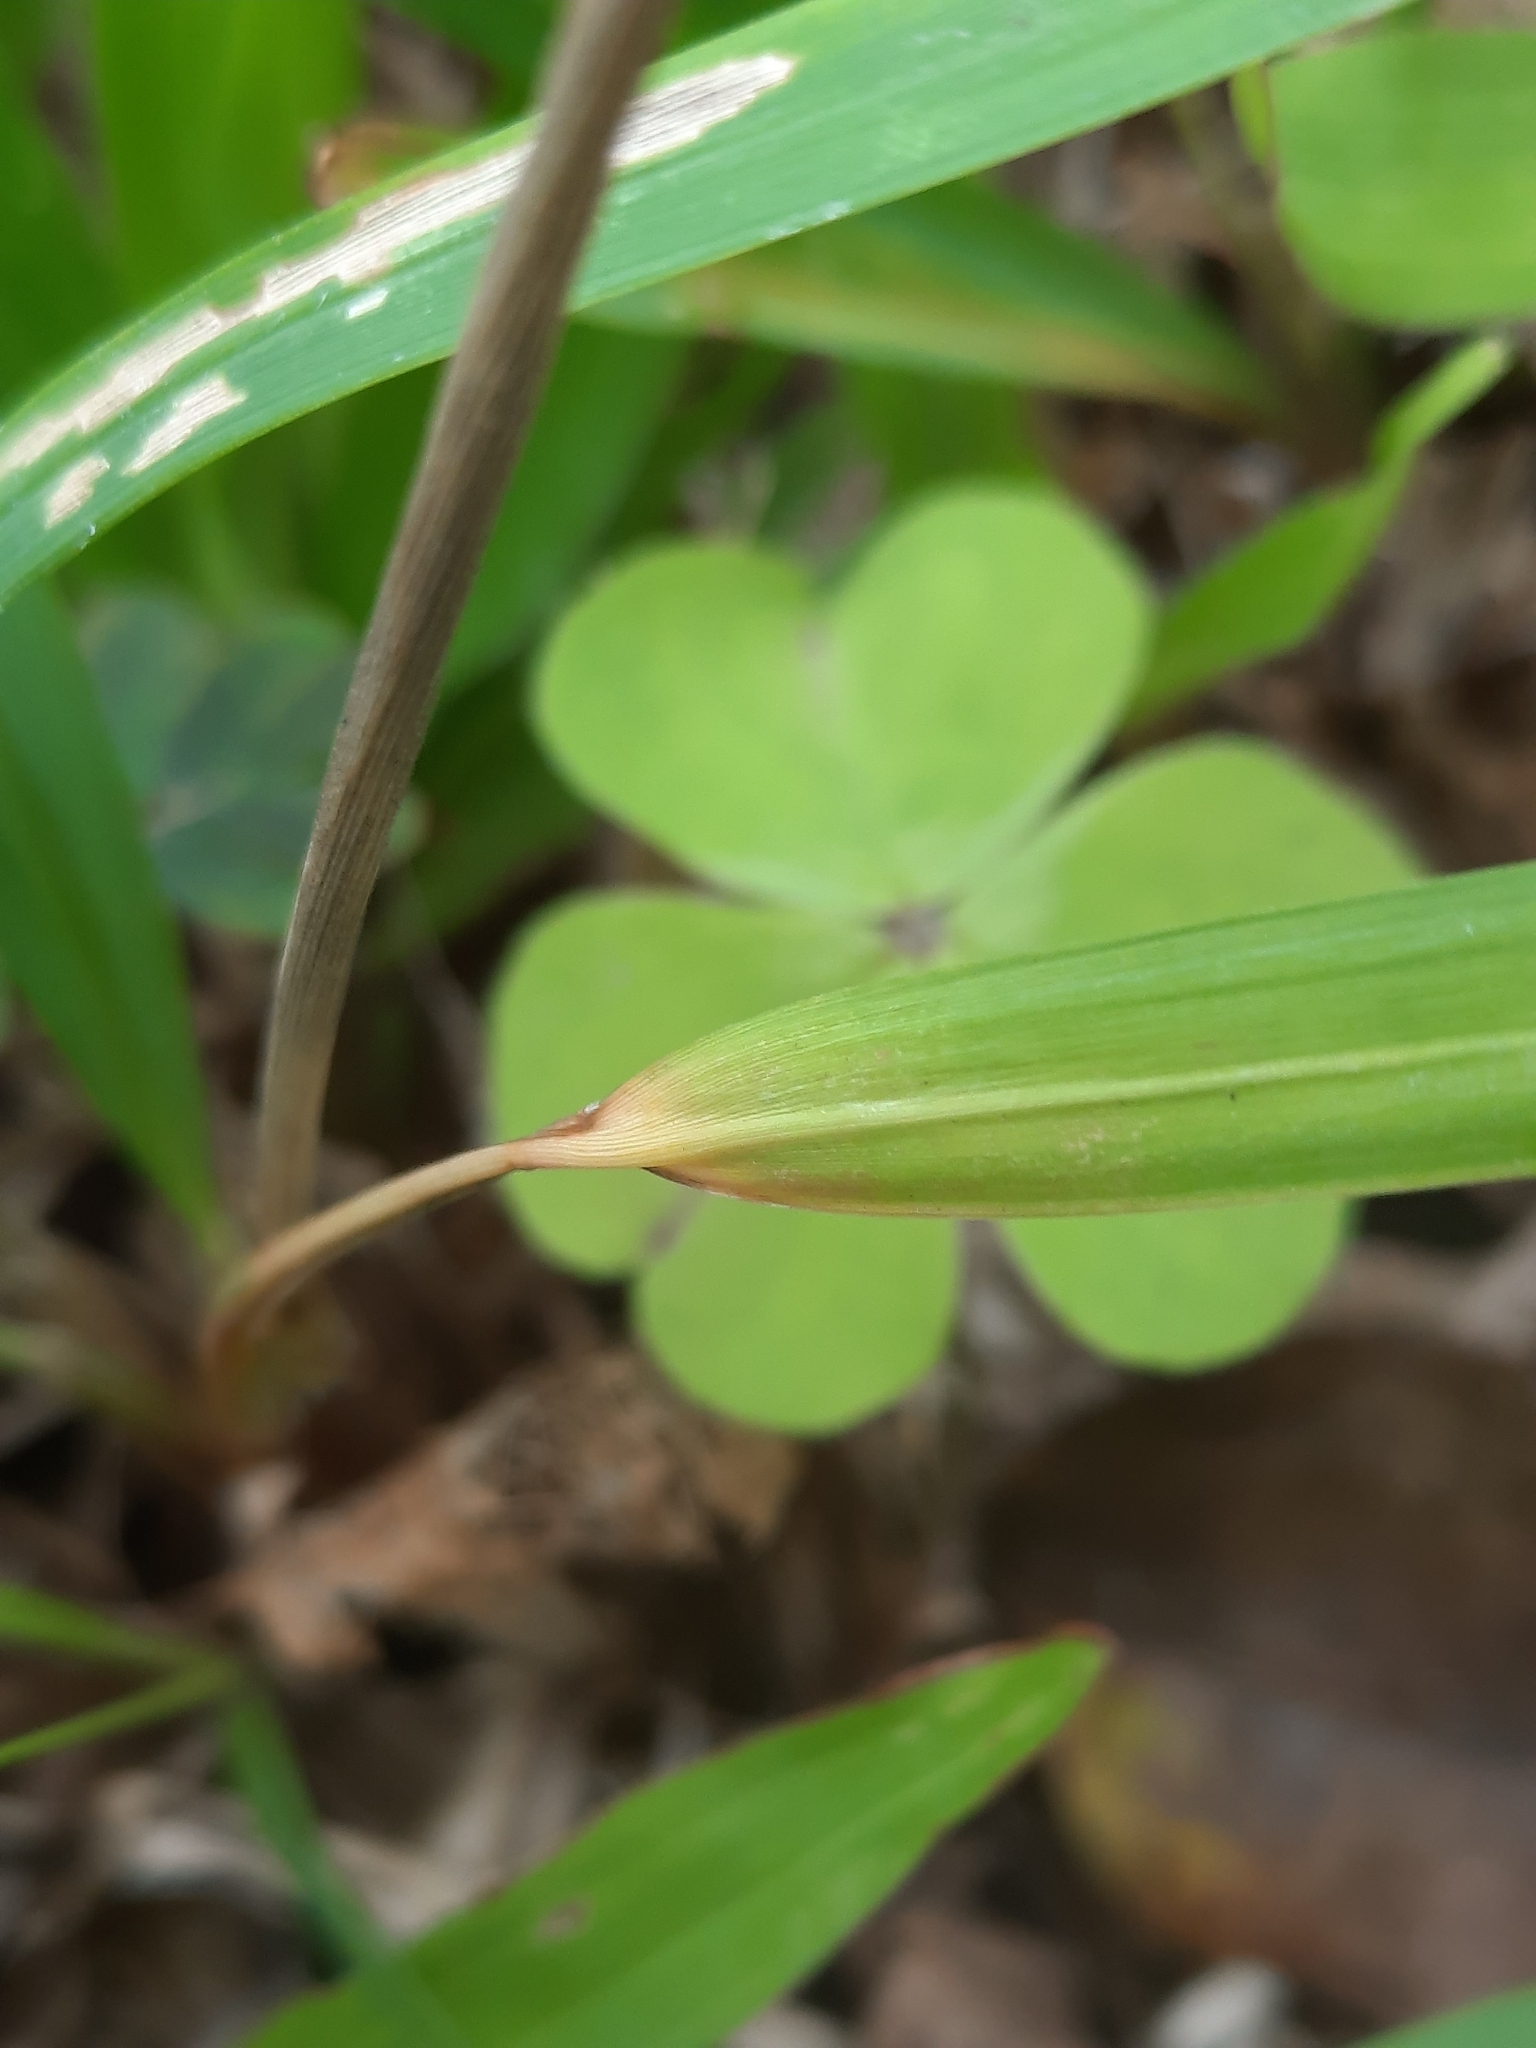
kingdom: Plantae
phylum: Tracheophyta
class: Liliopsida
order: Poales
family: Poaceae
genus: Imperata
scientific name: Imperata cylindrica
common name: Cogongrass
